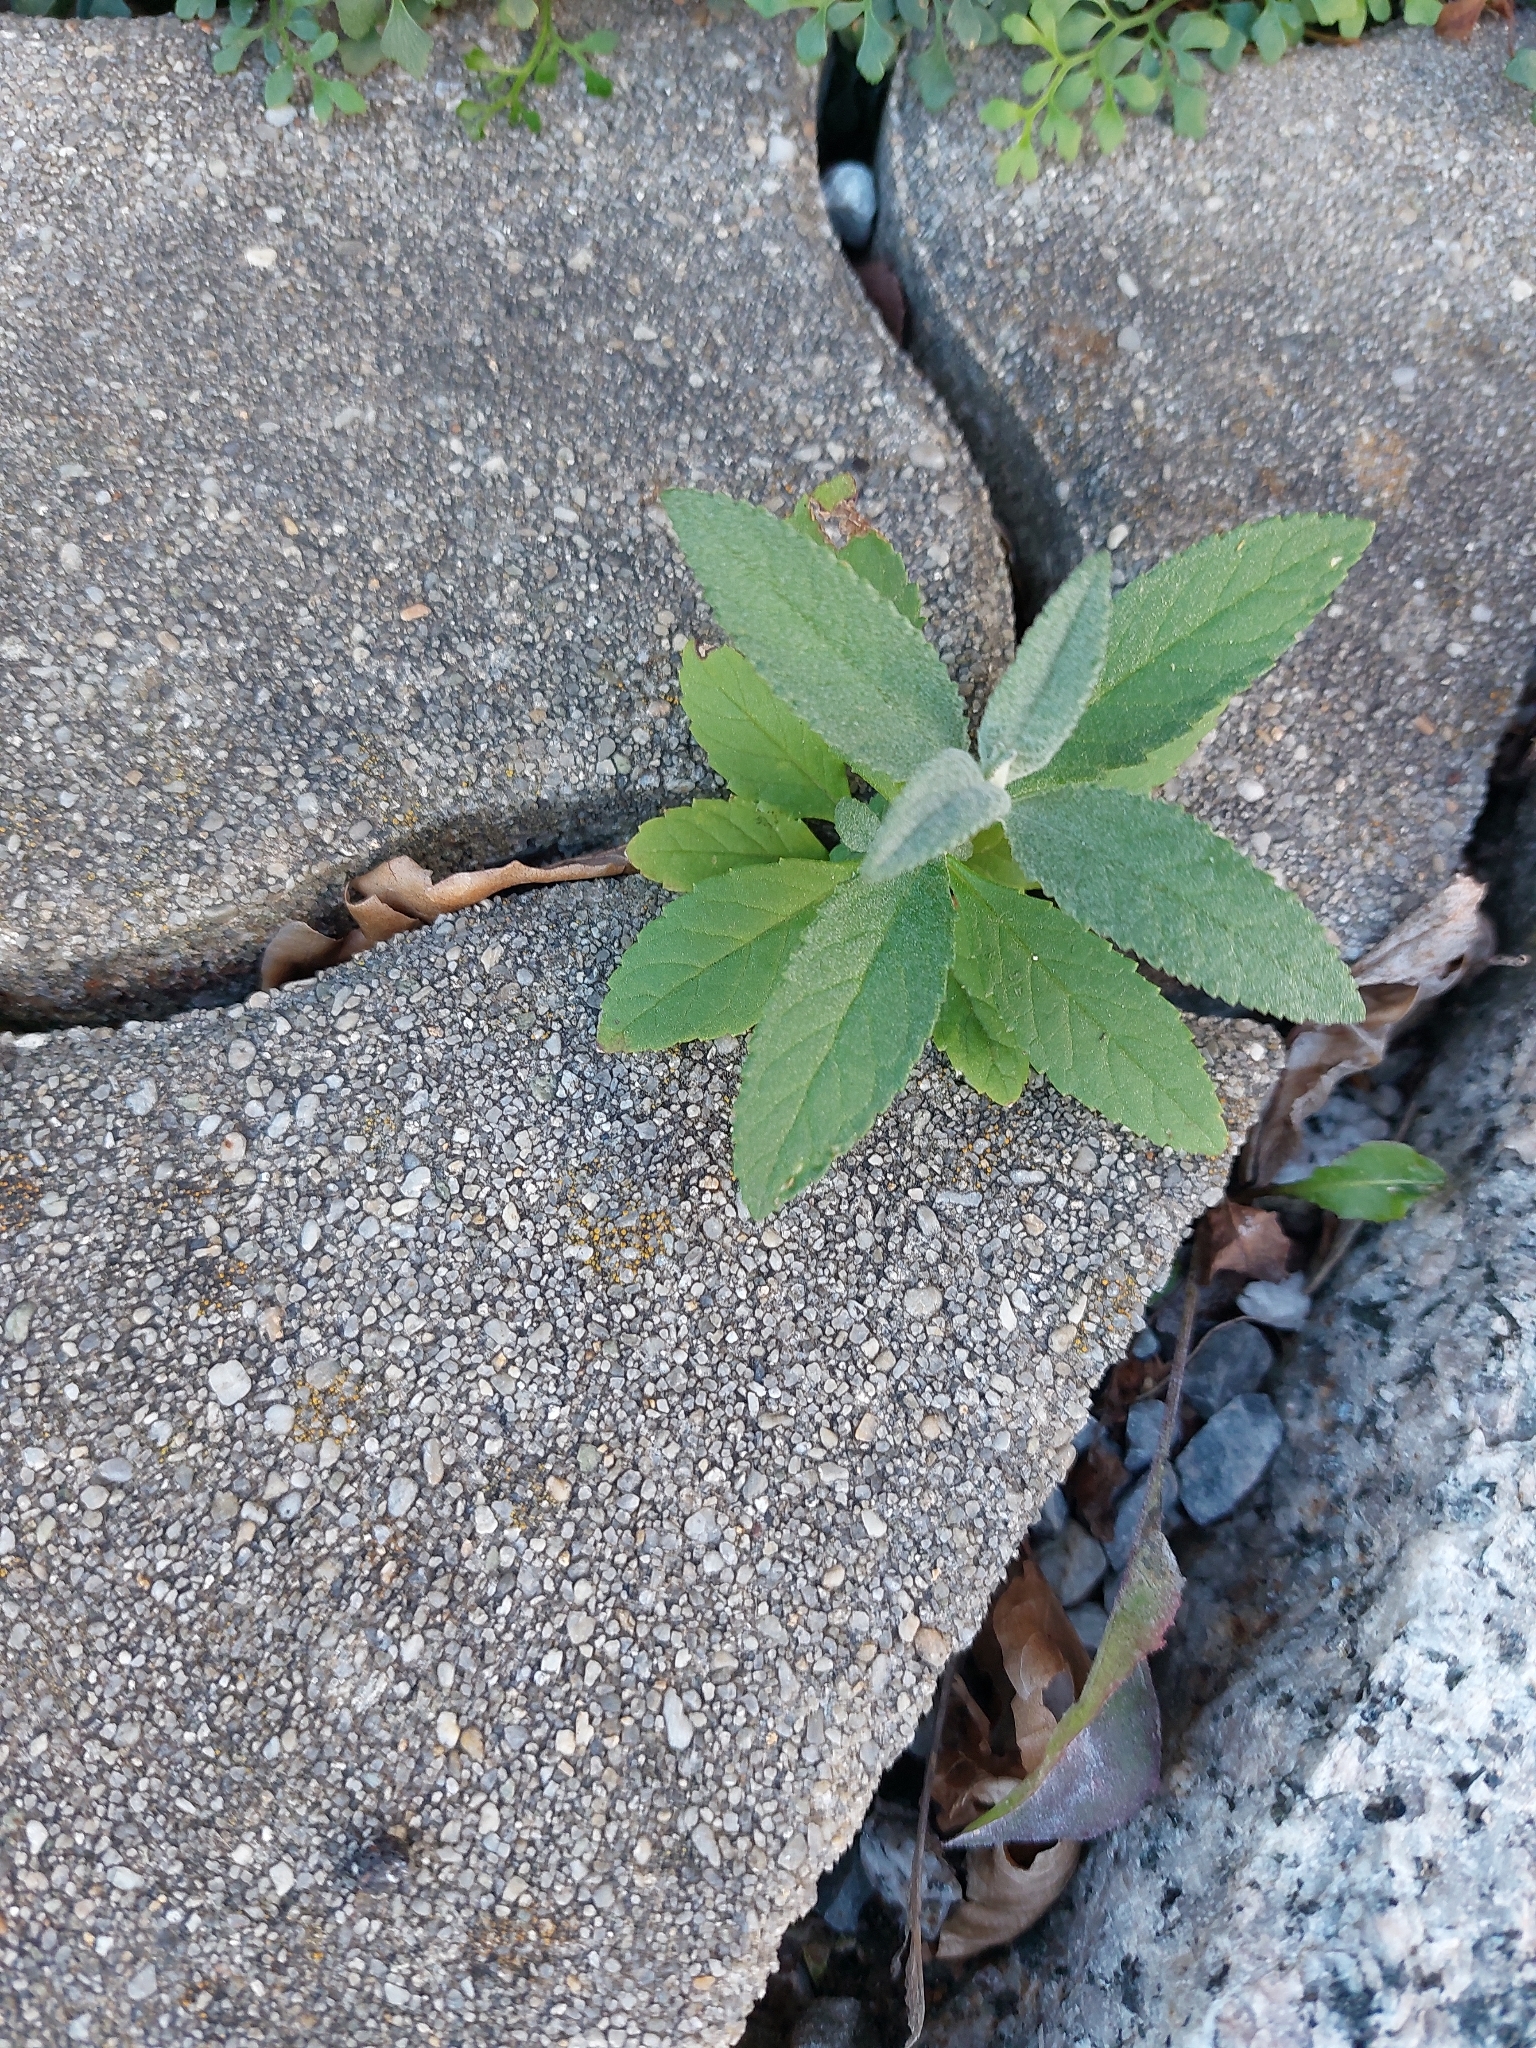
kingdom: Plantae
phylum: Tracheophyta
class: Magnoliopsida
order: Lamiales
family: Scrophulariaceae
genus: Buddleja
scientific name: Buddleja davidii
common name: Butterfly-bush
